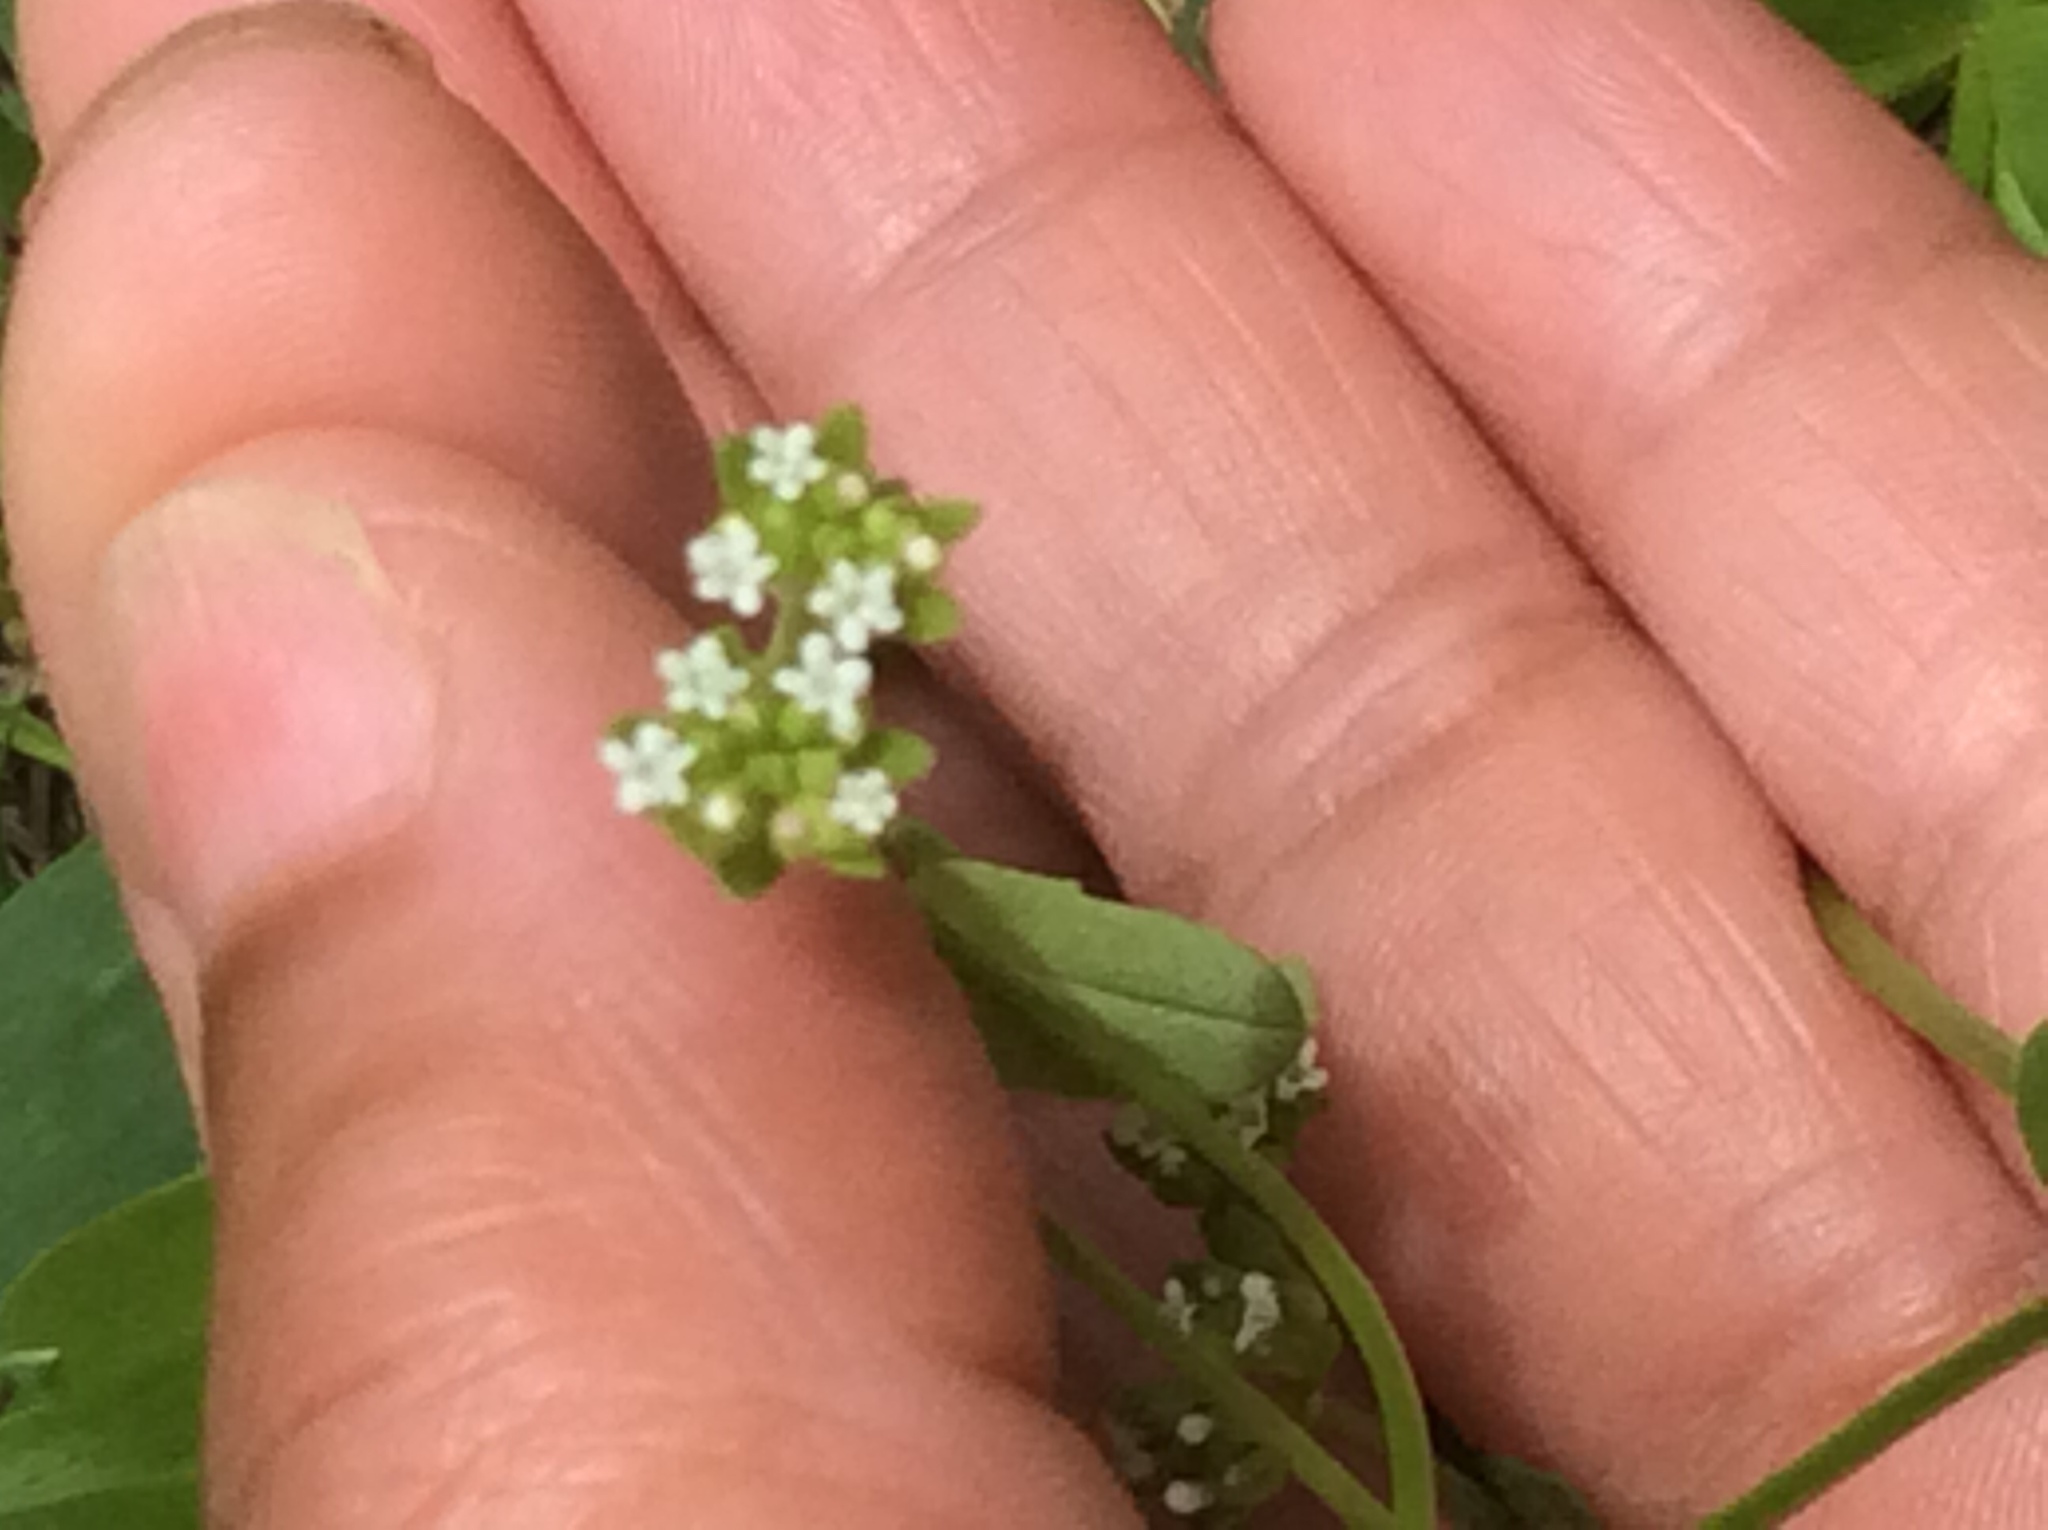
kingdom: Plantae
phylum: Tracheophyta
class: Magnoliopsida
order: Dipsacales
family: Caprifoliaceae
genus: Valerianella
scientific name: Valerianella radiata
